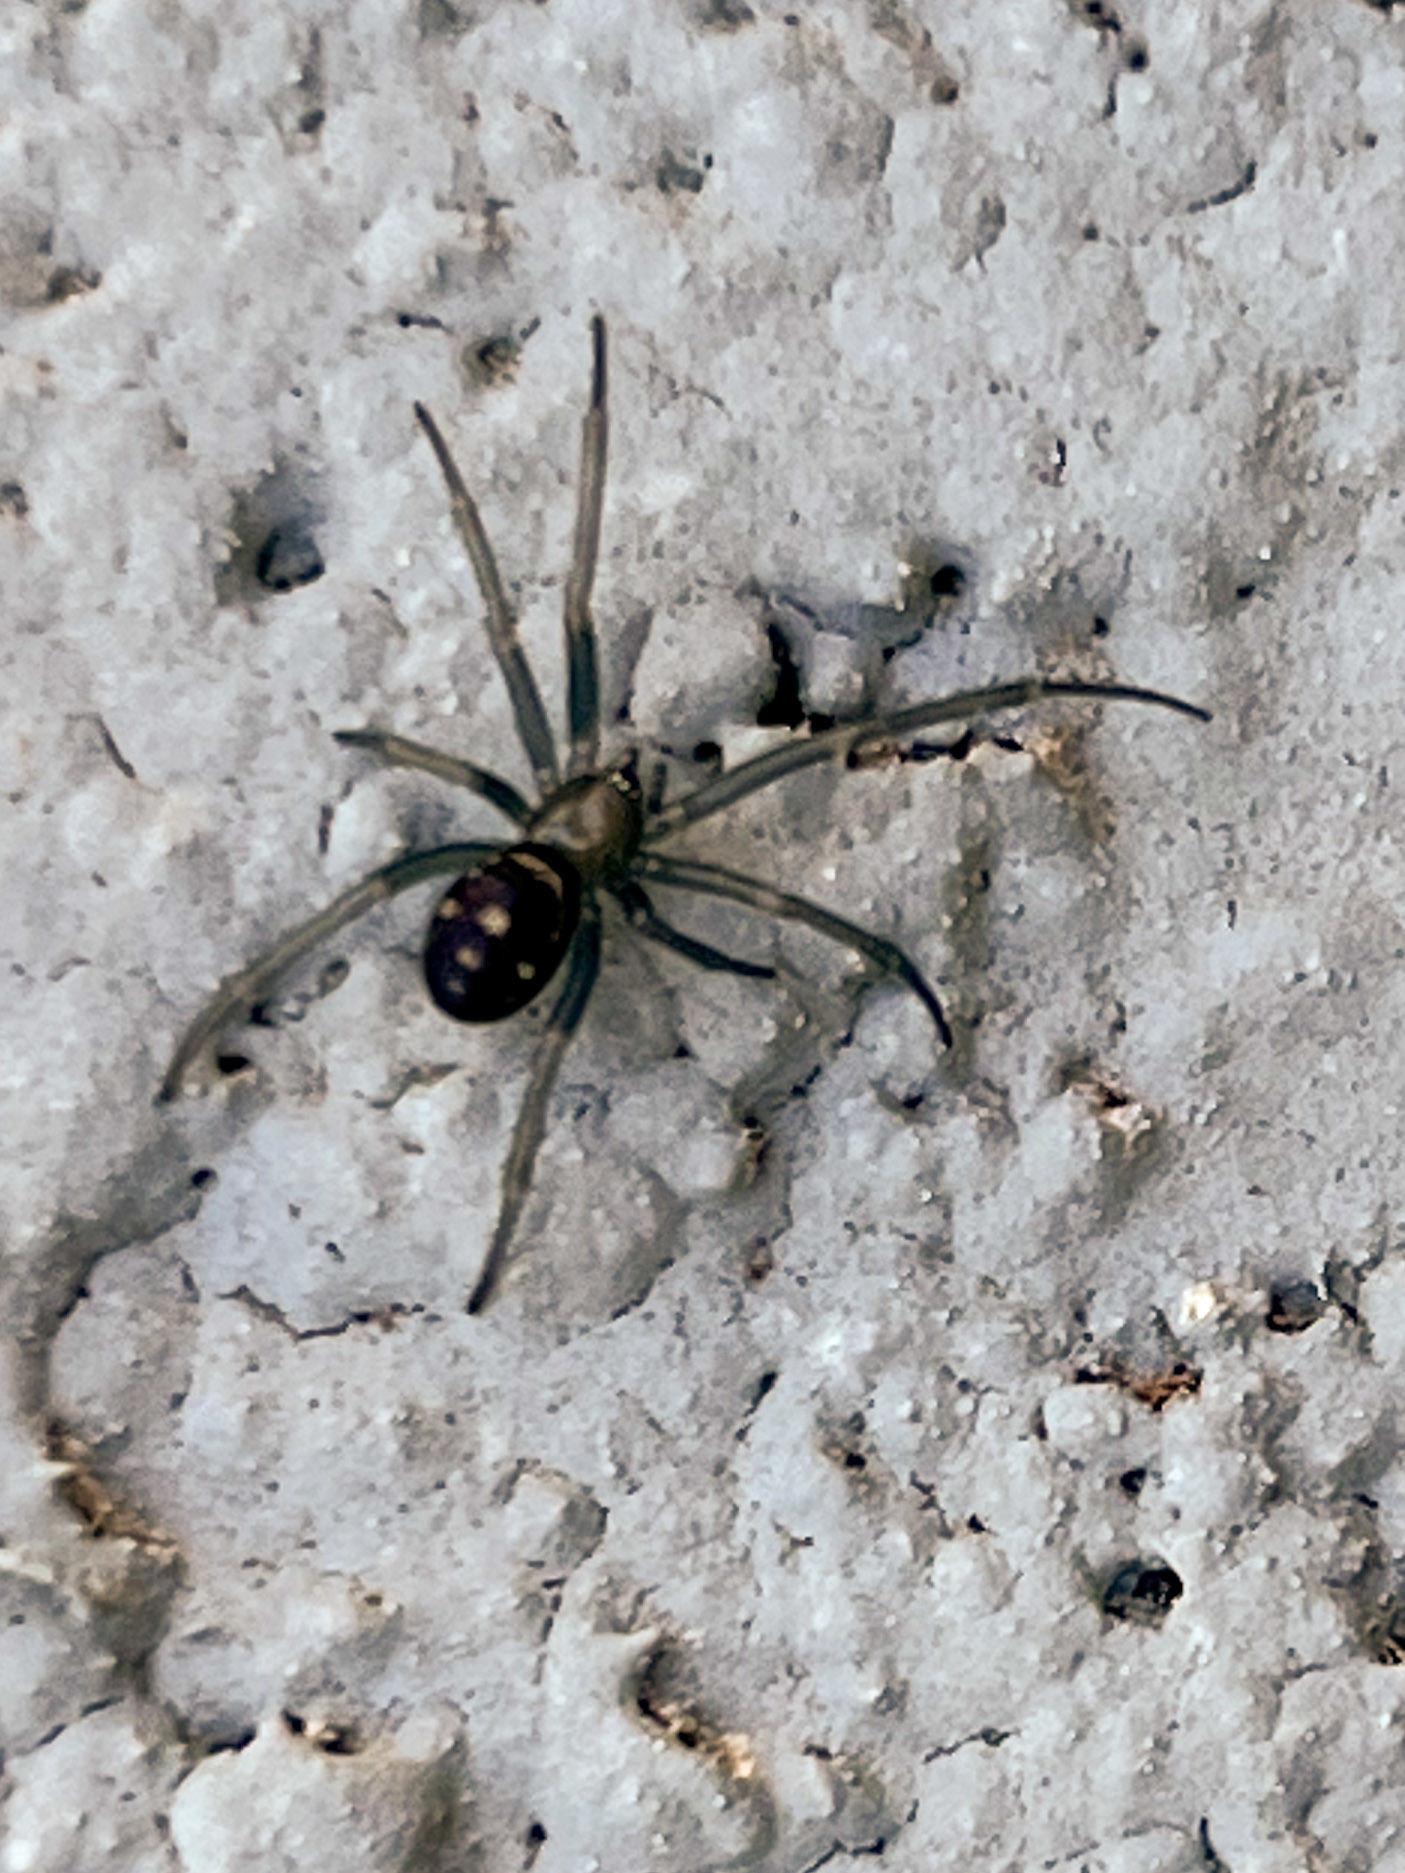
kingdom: Animalia
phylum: Arthropoda
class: Arachnida
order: Araneae
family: Theridiidae
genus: Steatoda
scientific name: Steatoda grossa
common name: False black widow
